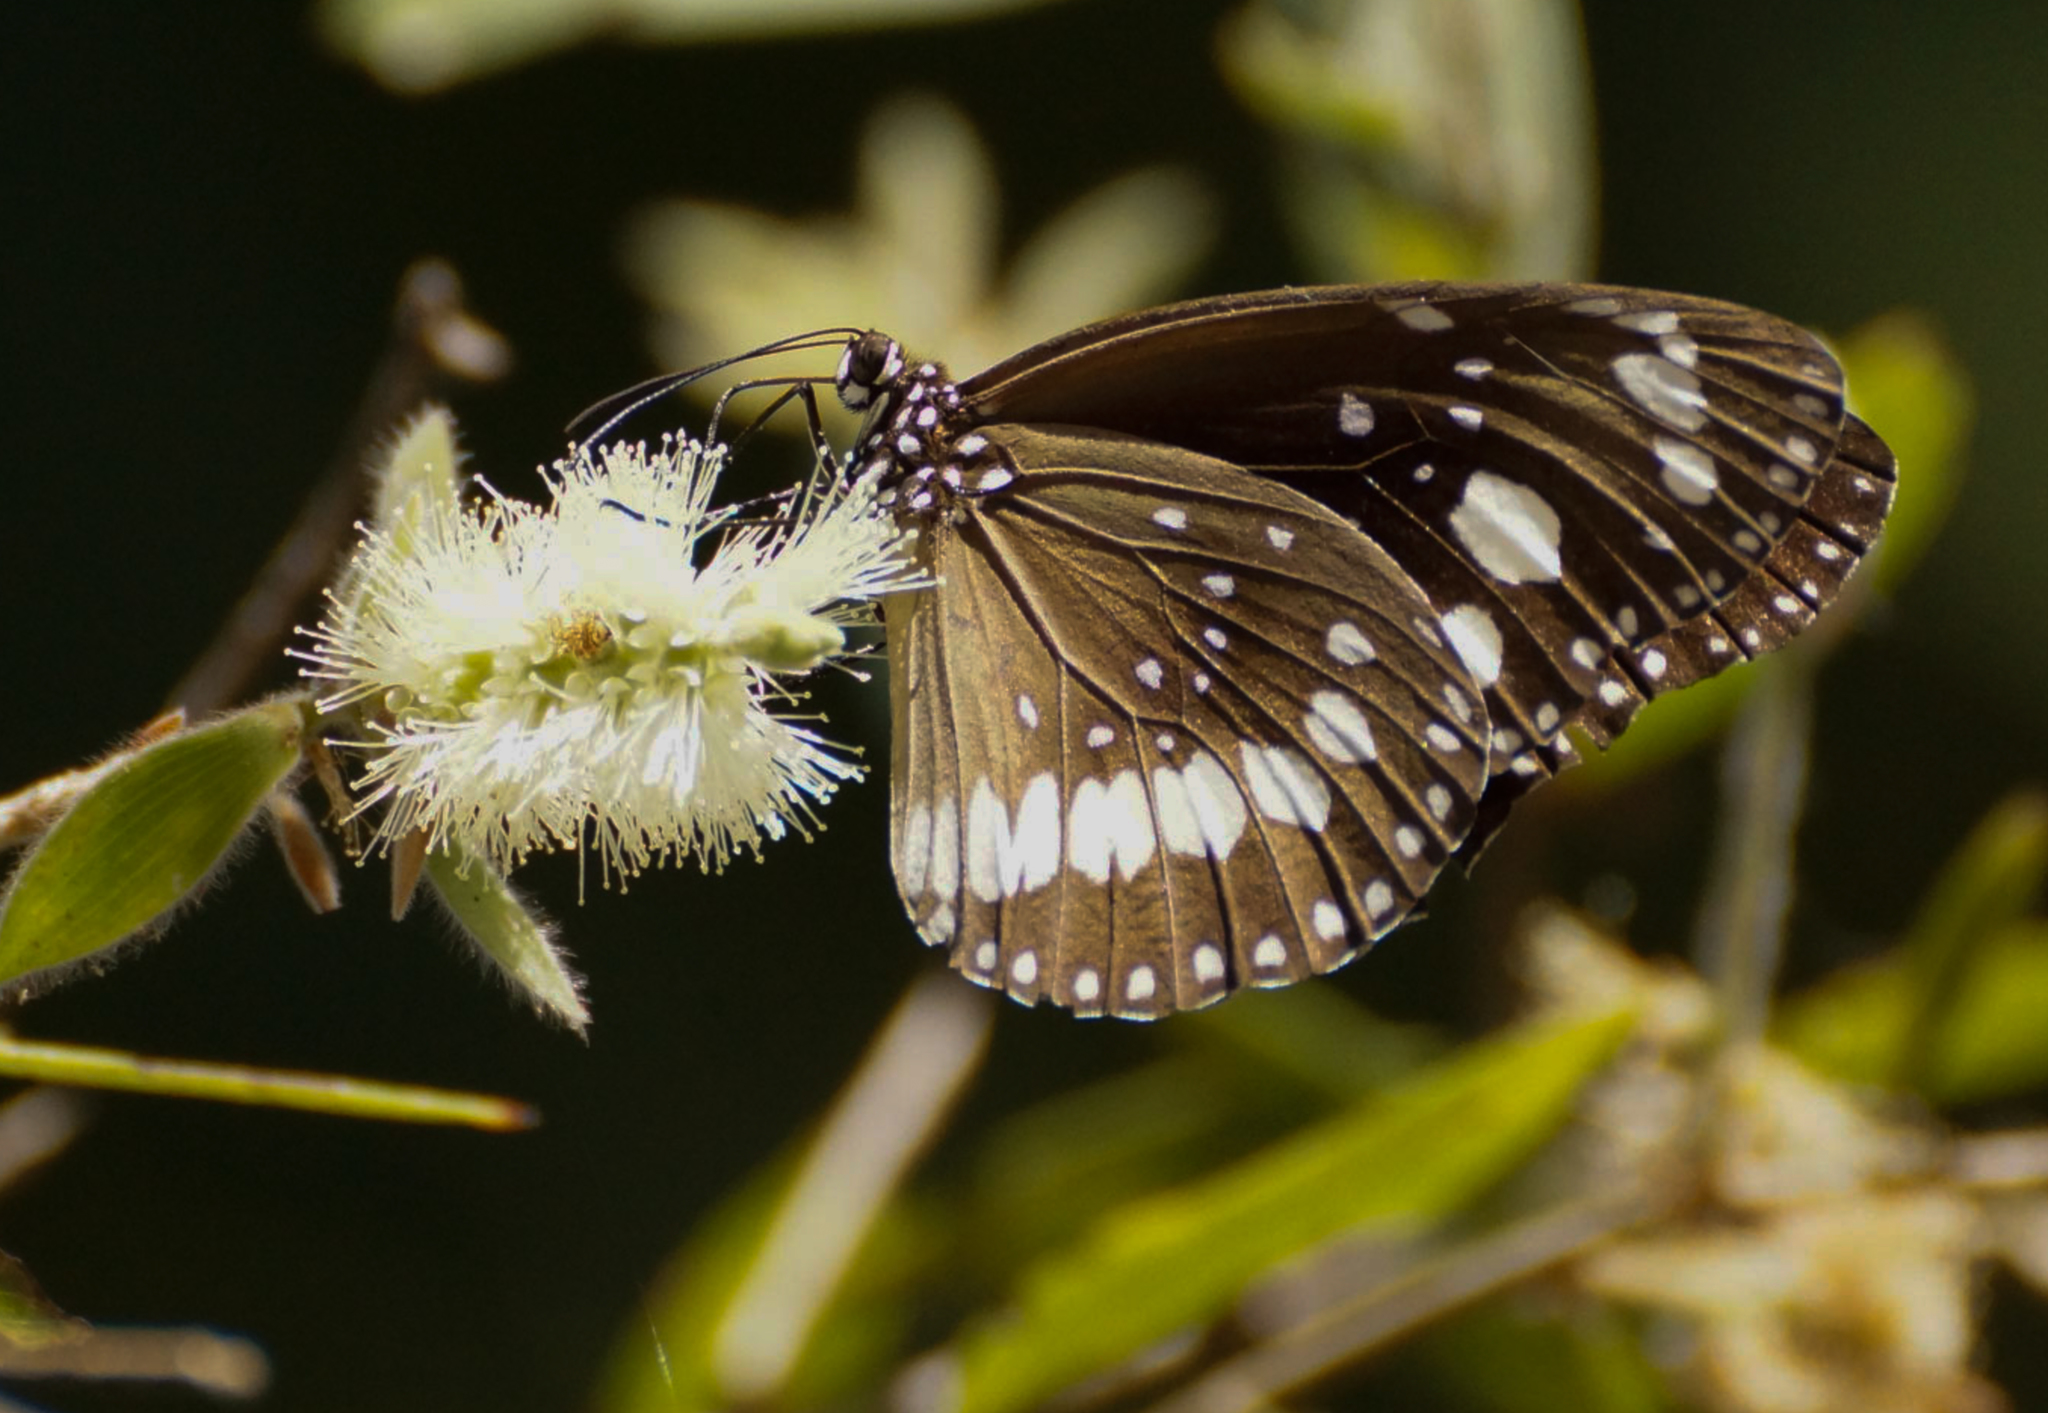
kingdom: Animalia
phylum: Arthropoda
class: Insecta
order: Lepidoptera
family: Nymphalidae
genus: Euploea
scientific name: Euploea core
